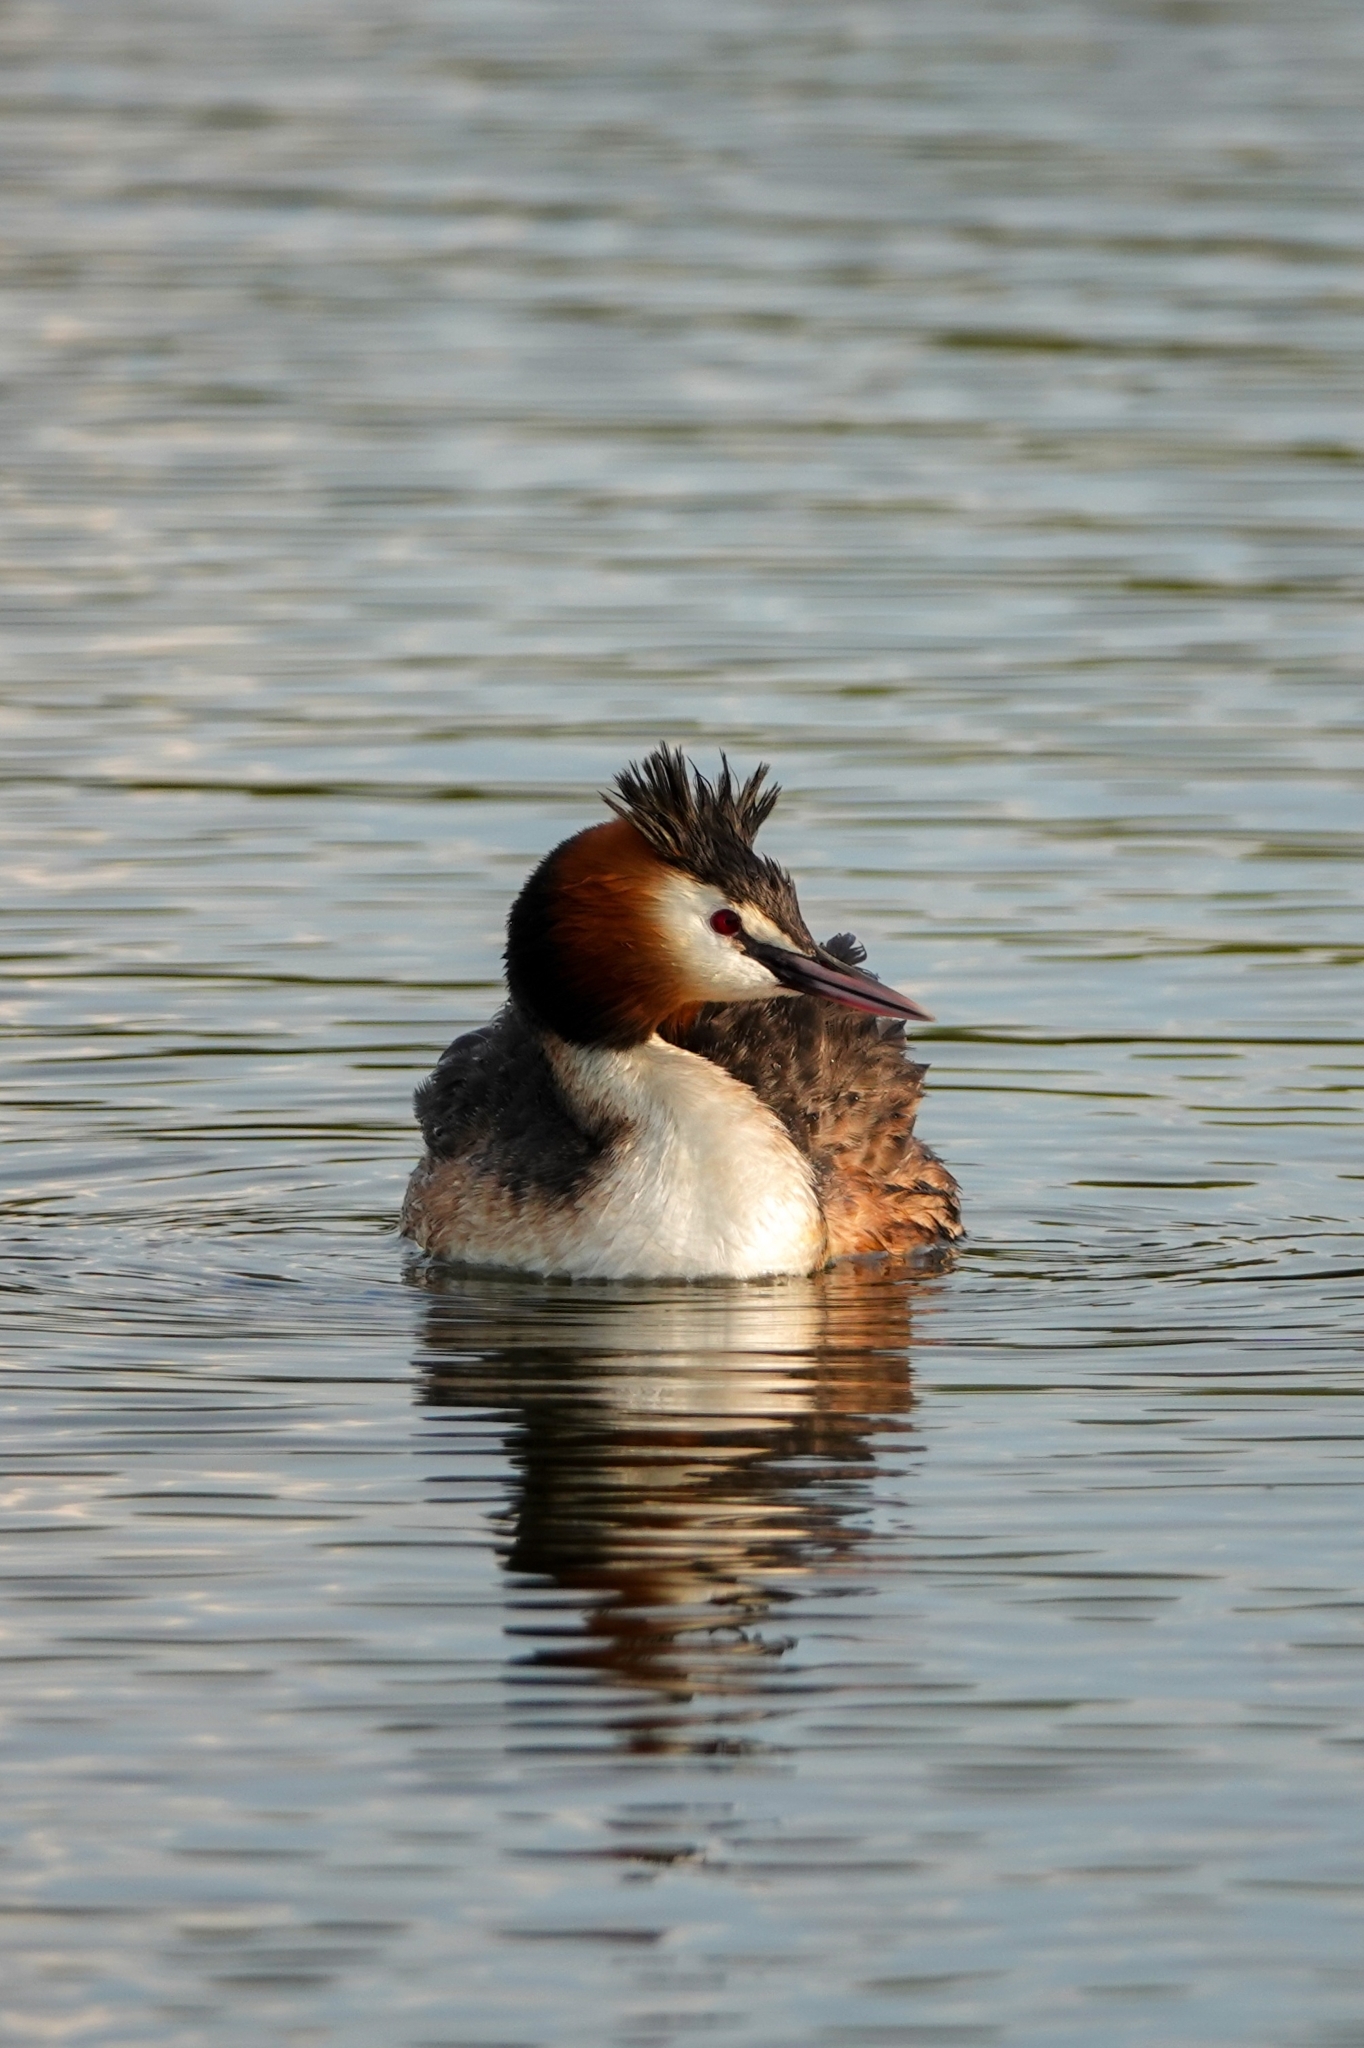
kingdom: Animalia
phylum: Chordata
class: Aves
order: Podicipediformes
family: Podicipedidae
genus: Podiceps
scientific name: Podiceps cristatus
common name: Great crested grebe
